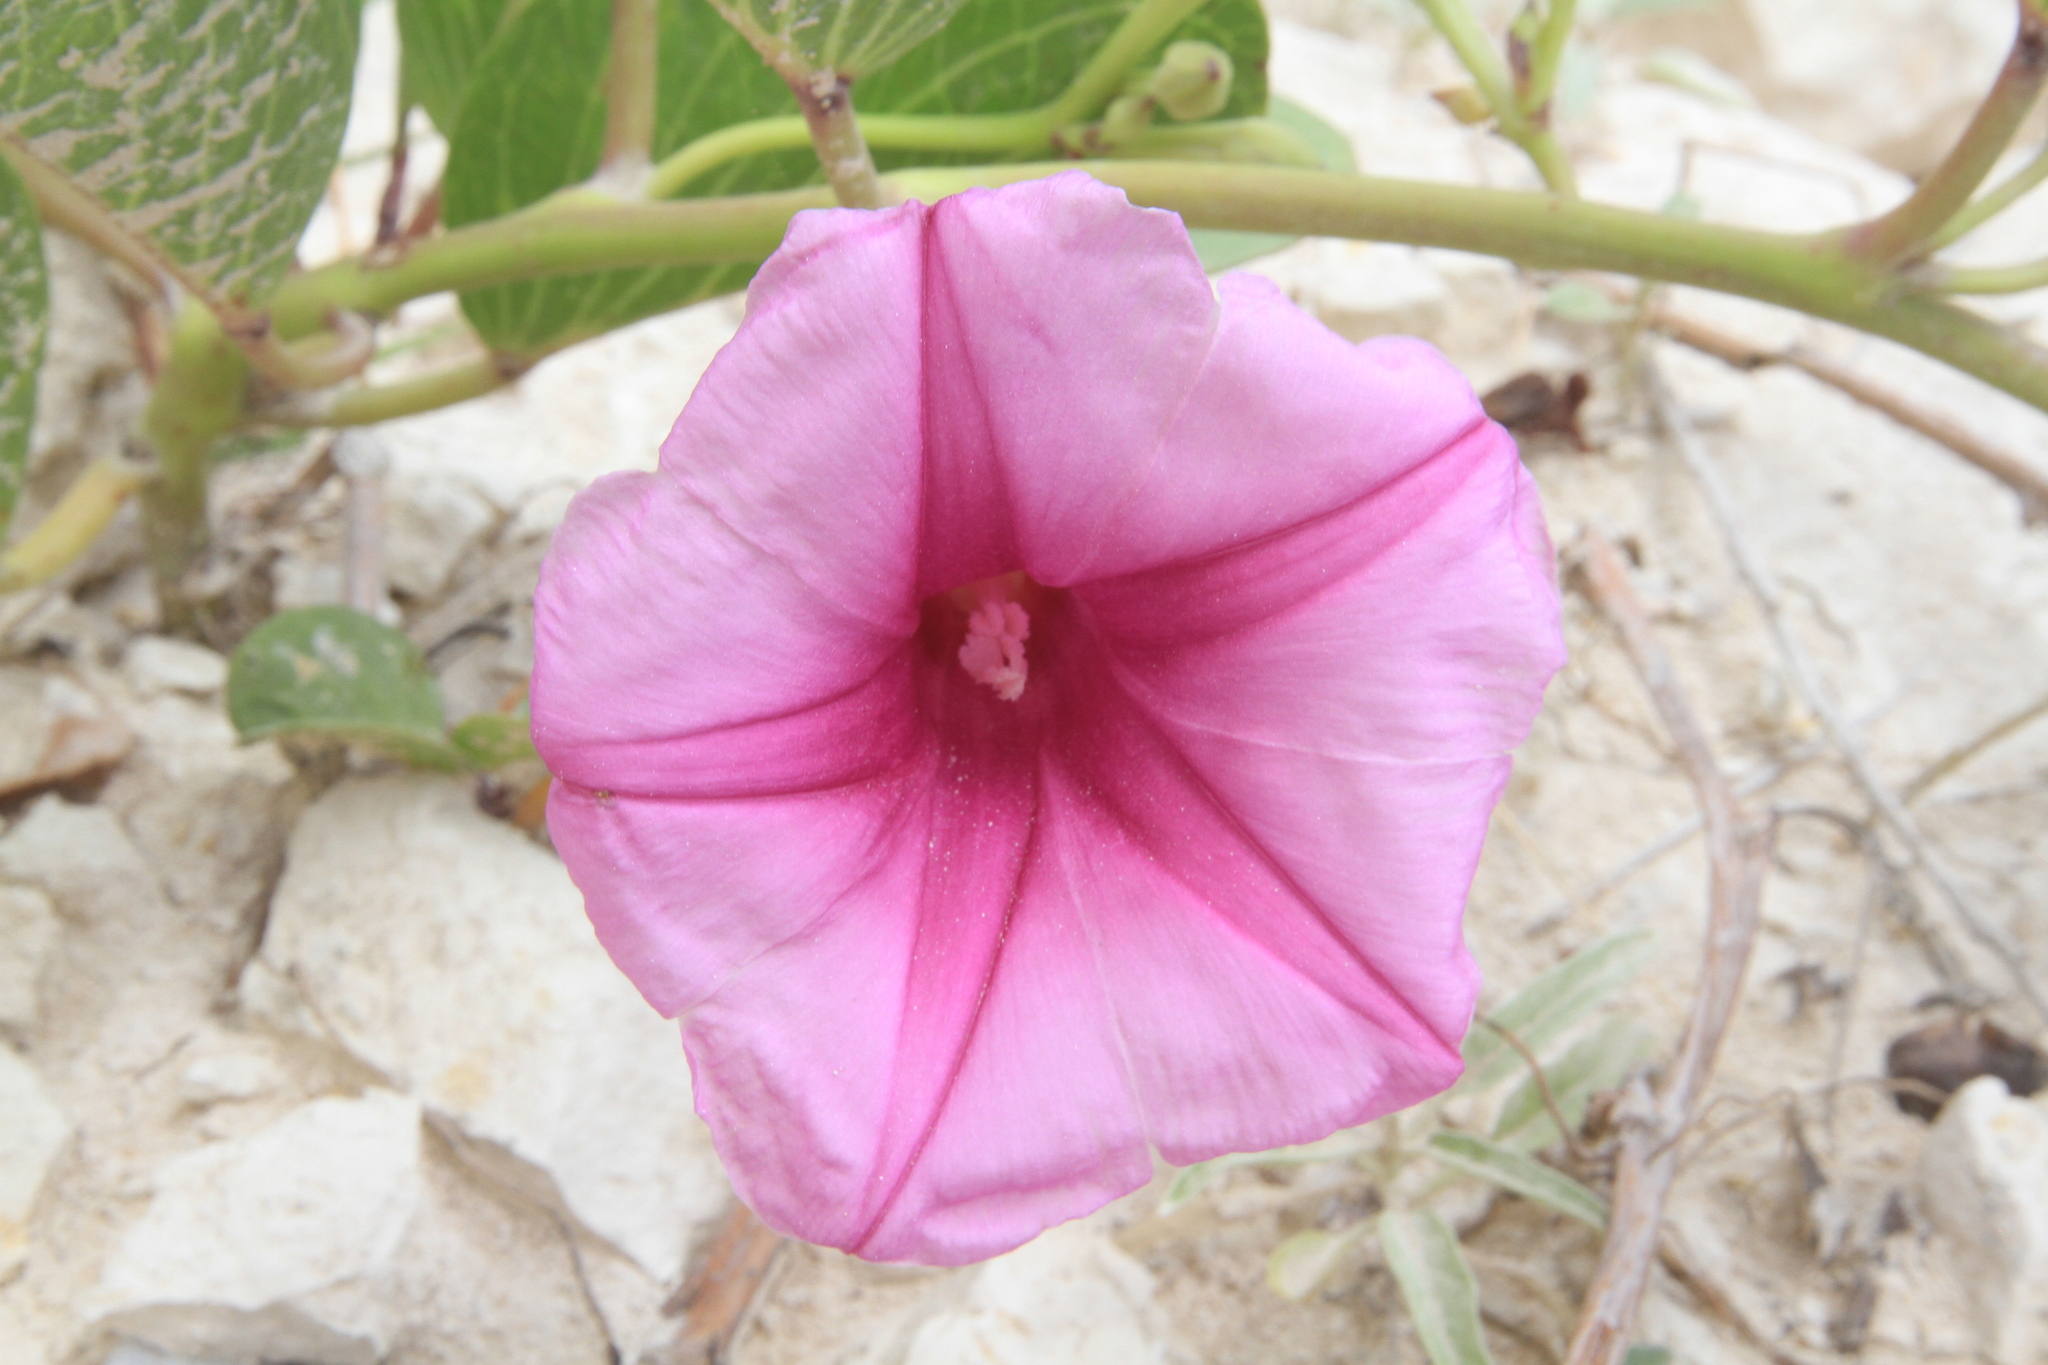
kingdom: Plantae
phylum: Tracheophyta
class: Magnoliopsida
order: Solanales
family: Convolvulaceae
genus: Ipomoea
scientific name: Ipomoea pes-caprae
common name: Beach morning glory
